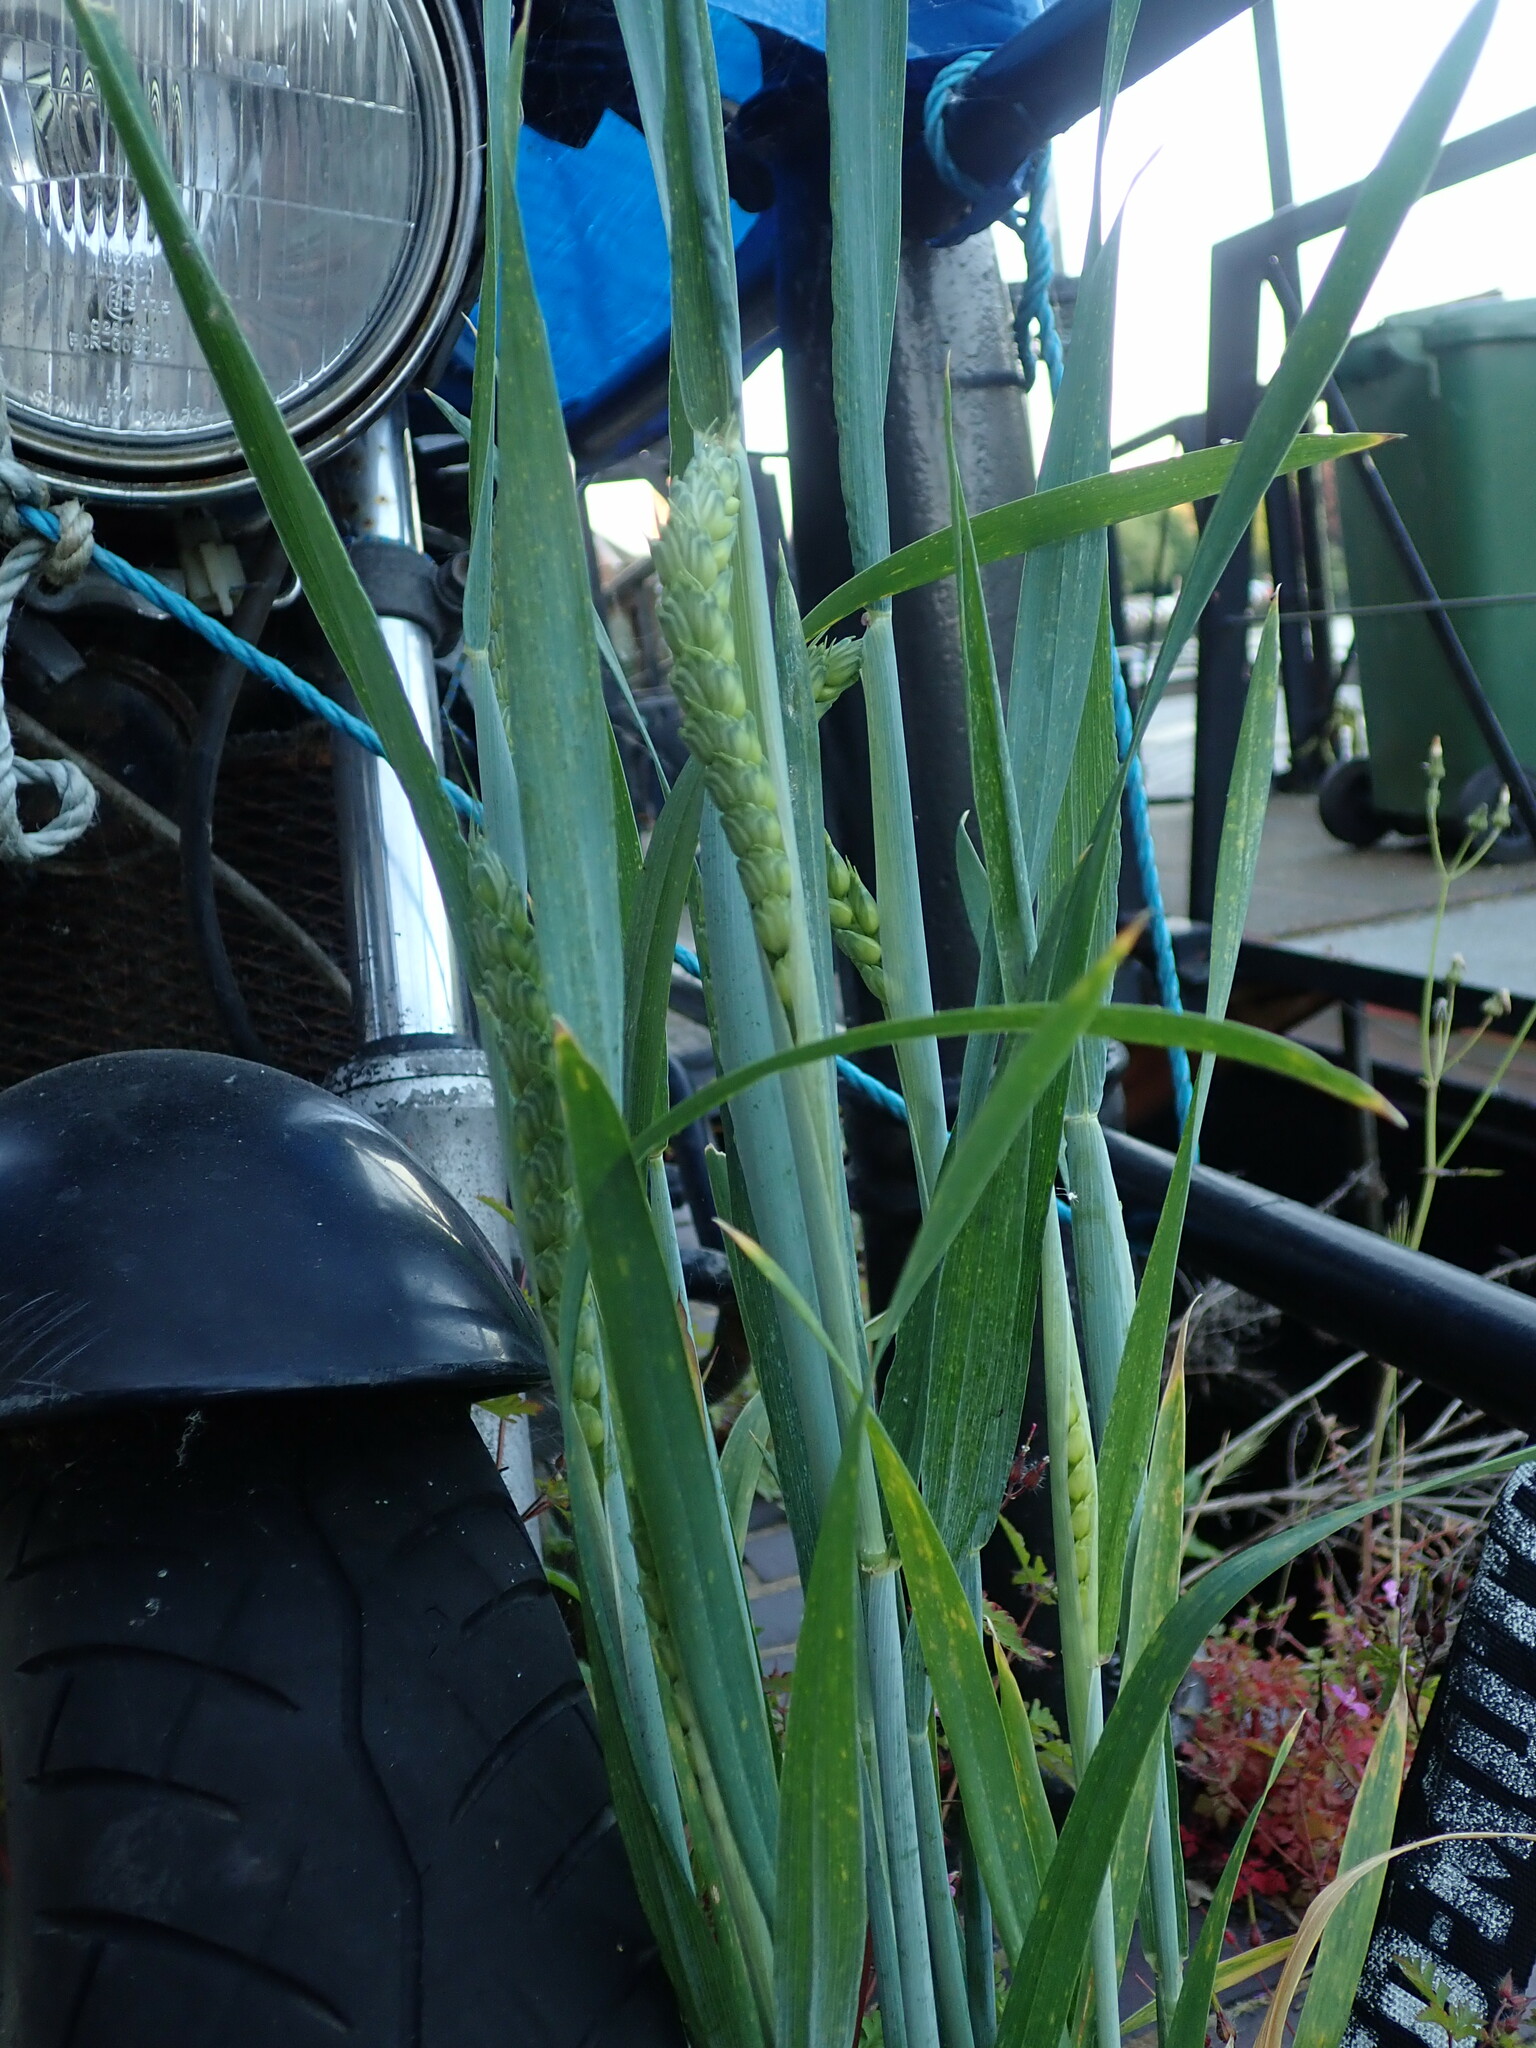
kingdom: Plantae
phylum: Tracheophyta
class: Liliopsida
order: Poales
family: Poaceae
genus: Triticum
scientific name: Triticum aestivum
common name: Common wheat
